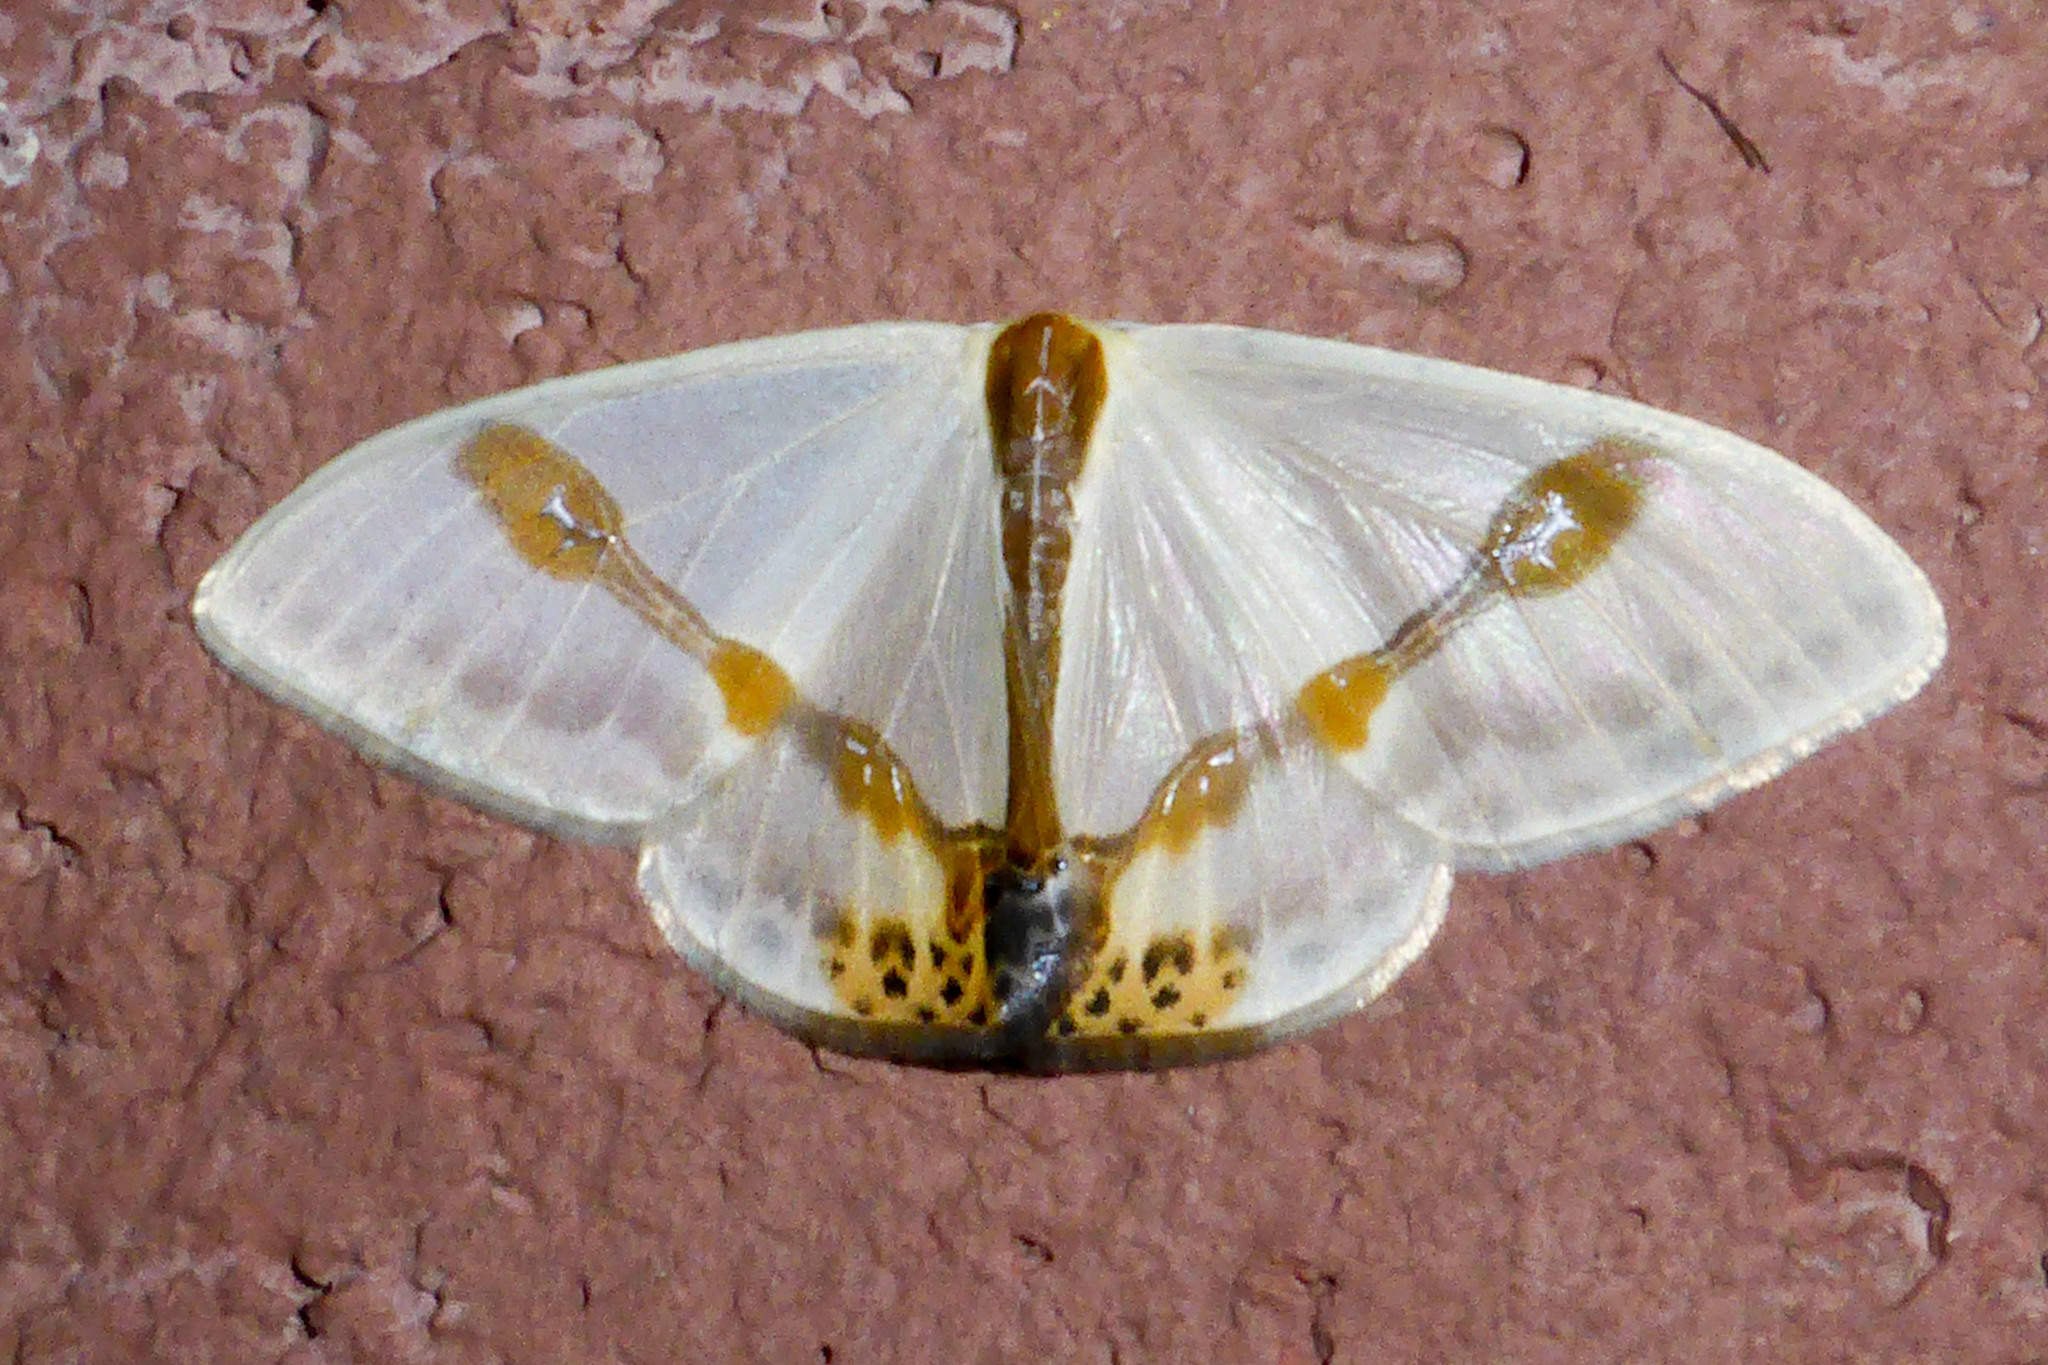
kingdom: Animalia
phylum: Arthropoda
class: Insecta
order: Lepidoptera
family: Drepanidae
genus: Macrocilix
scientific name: Macrocilix mysticata
